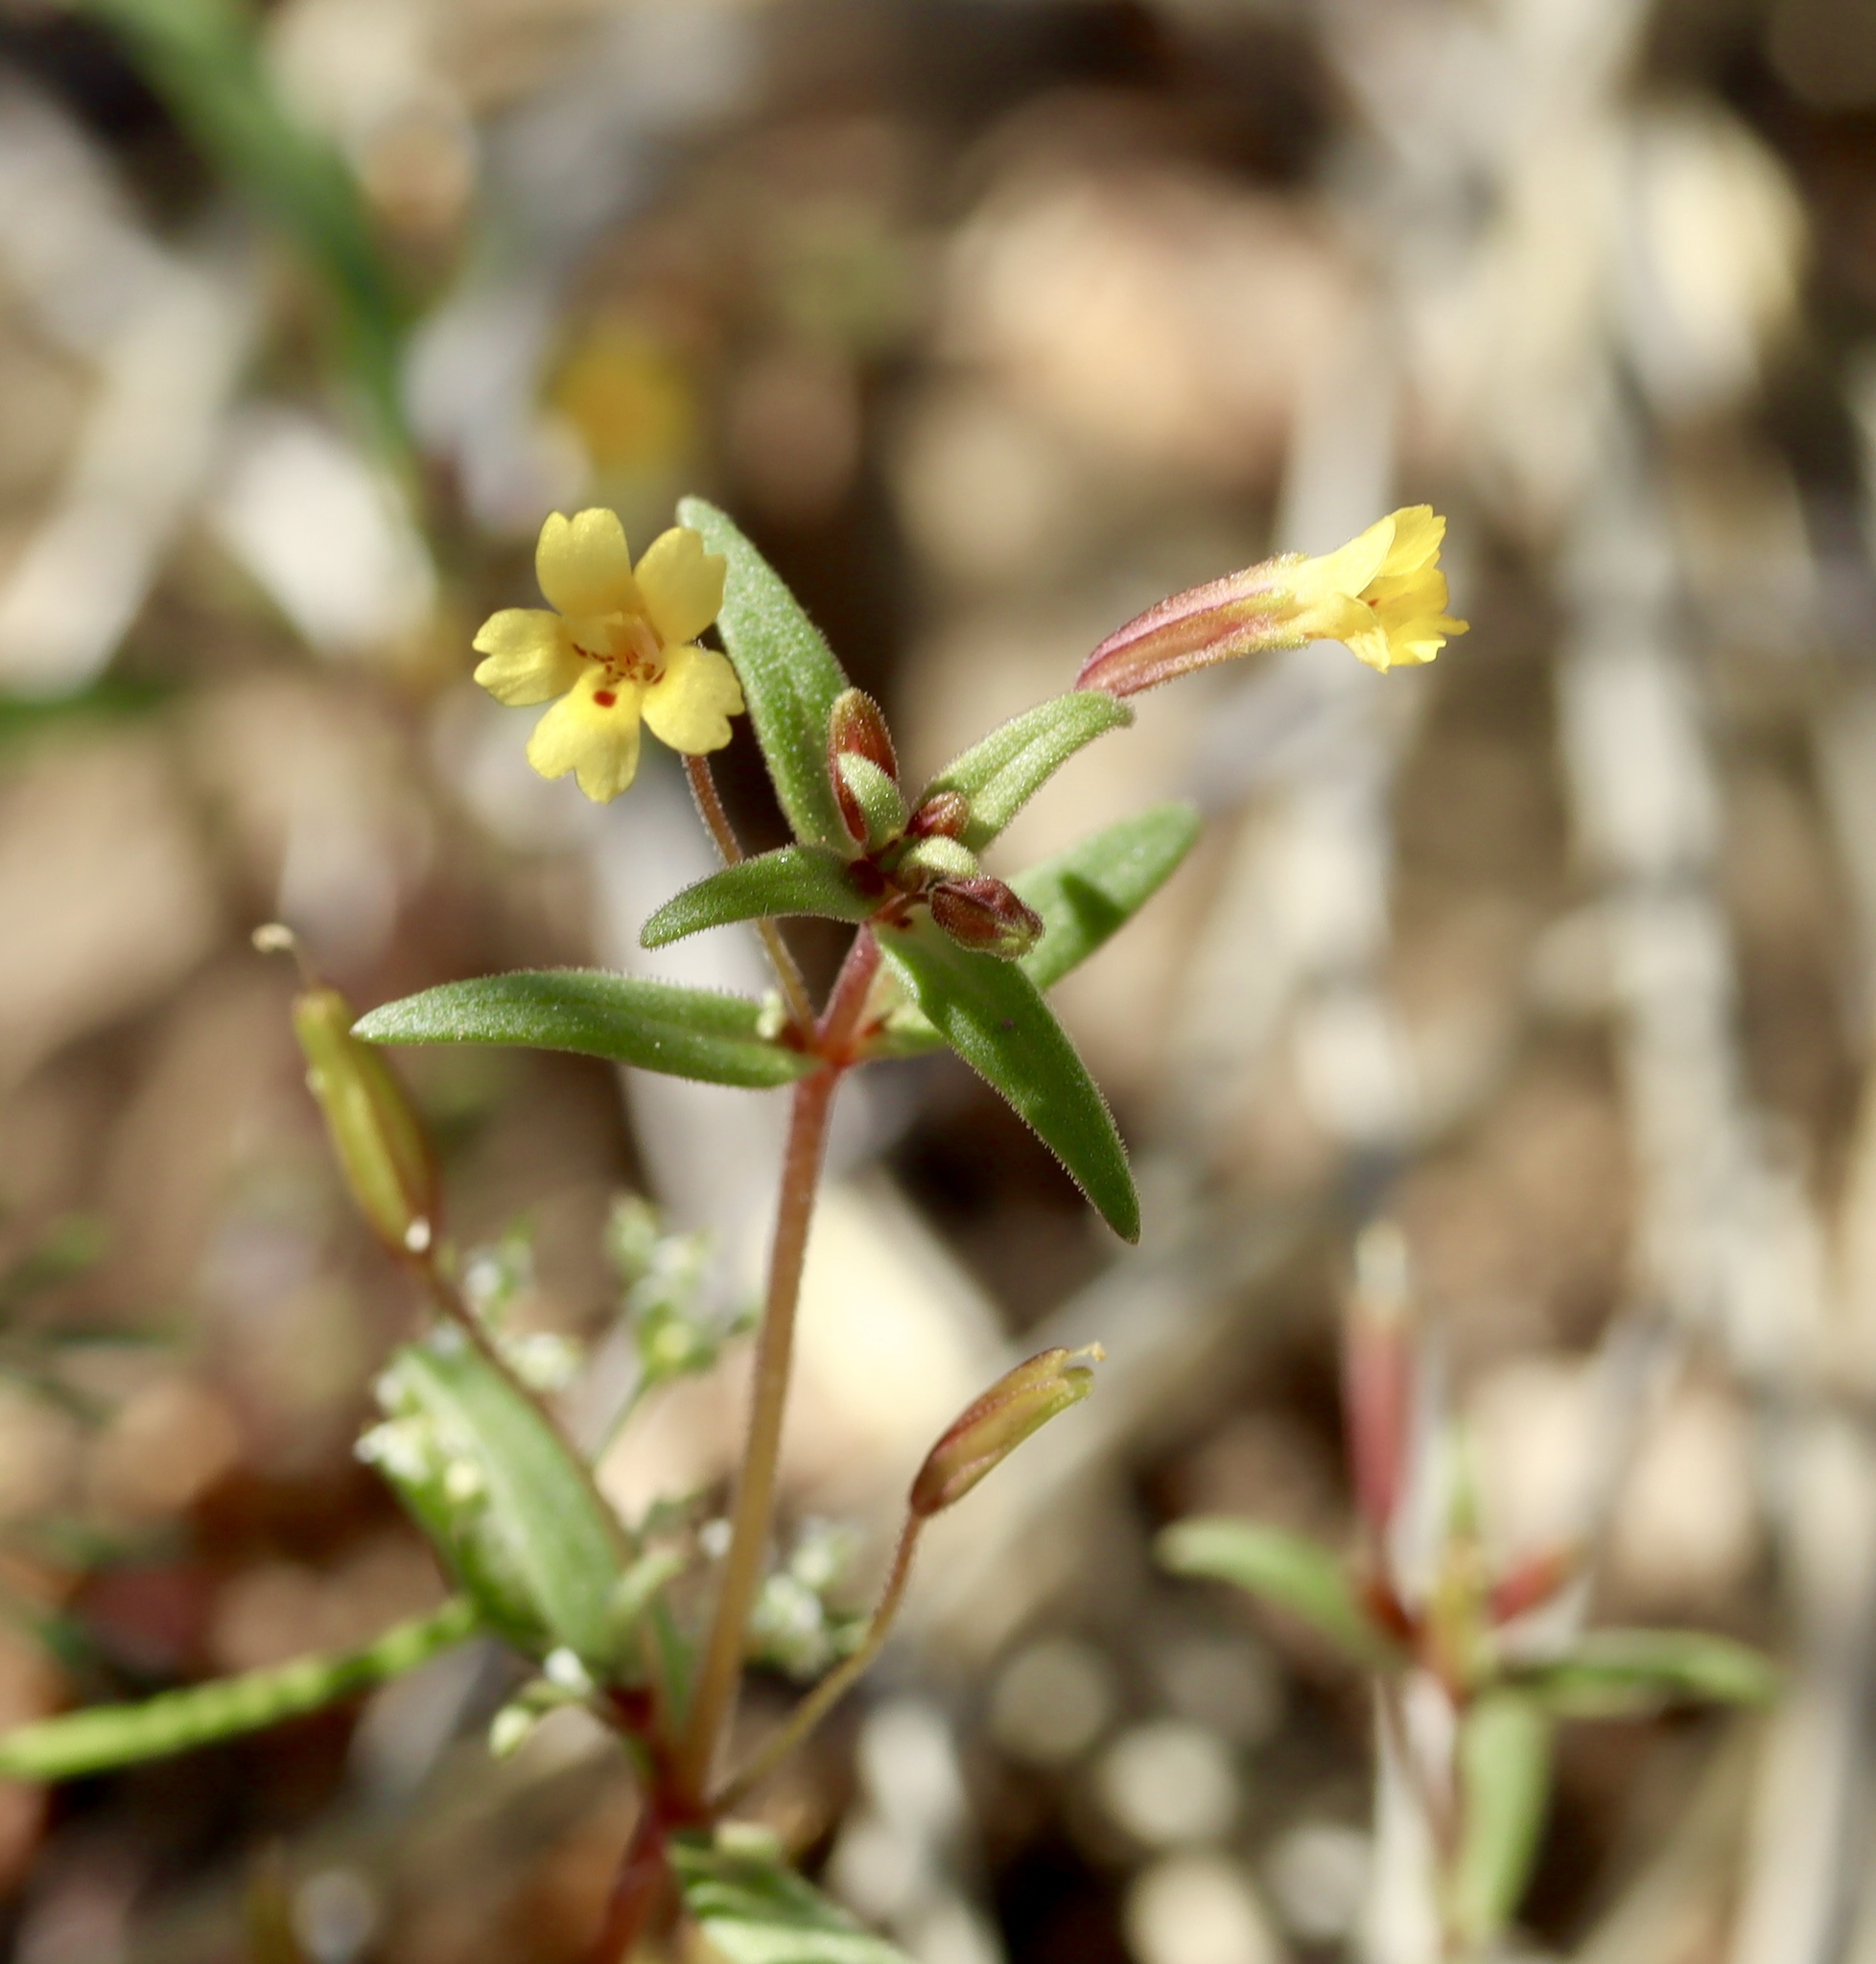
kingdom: Plantae
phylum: Tracheophyta
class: Magnoliopsida
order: Lamiales
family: Phrymaceae
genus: Erythranthe
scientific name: Erythranthe rubella
